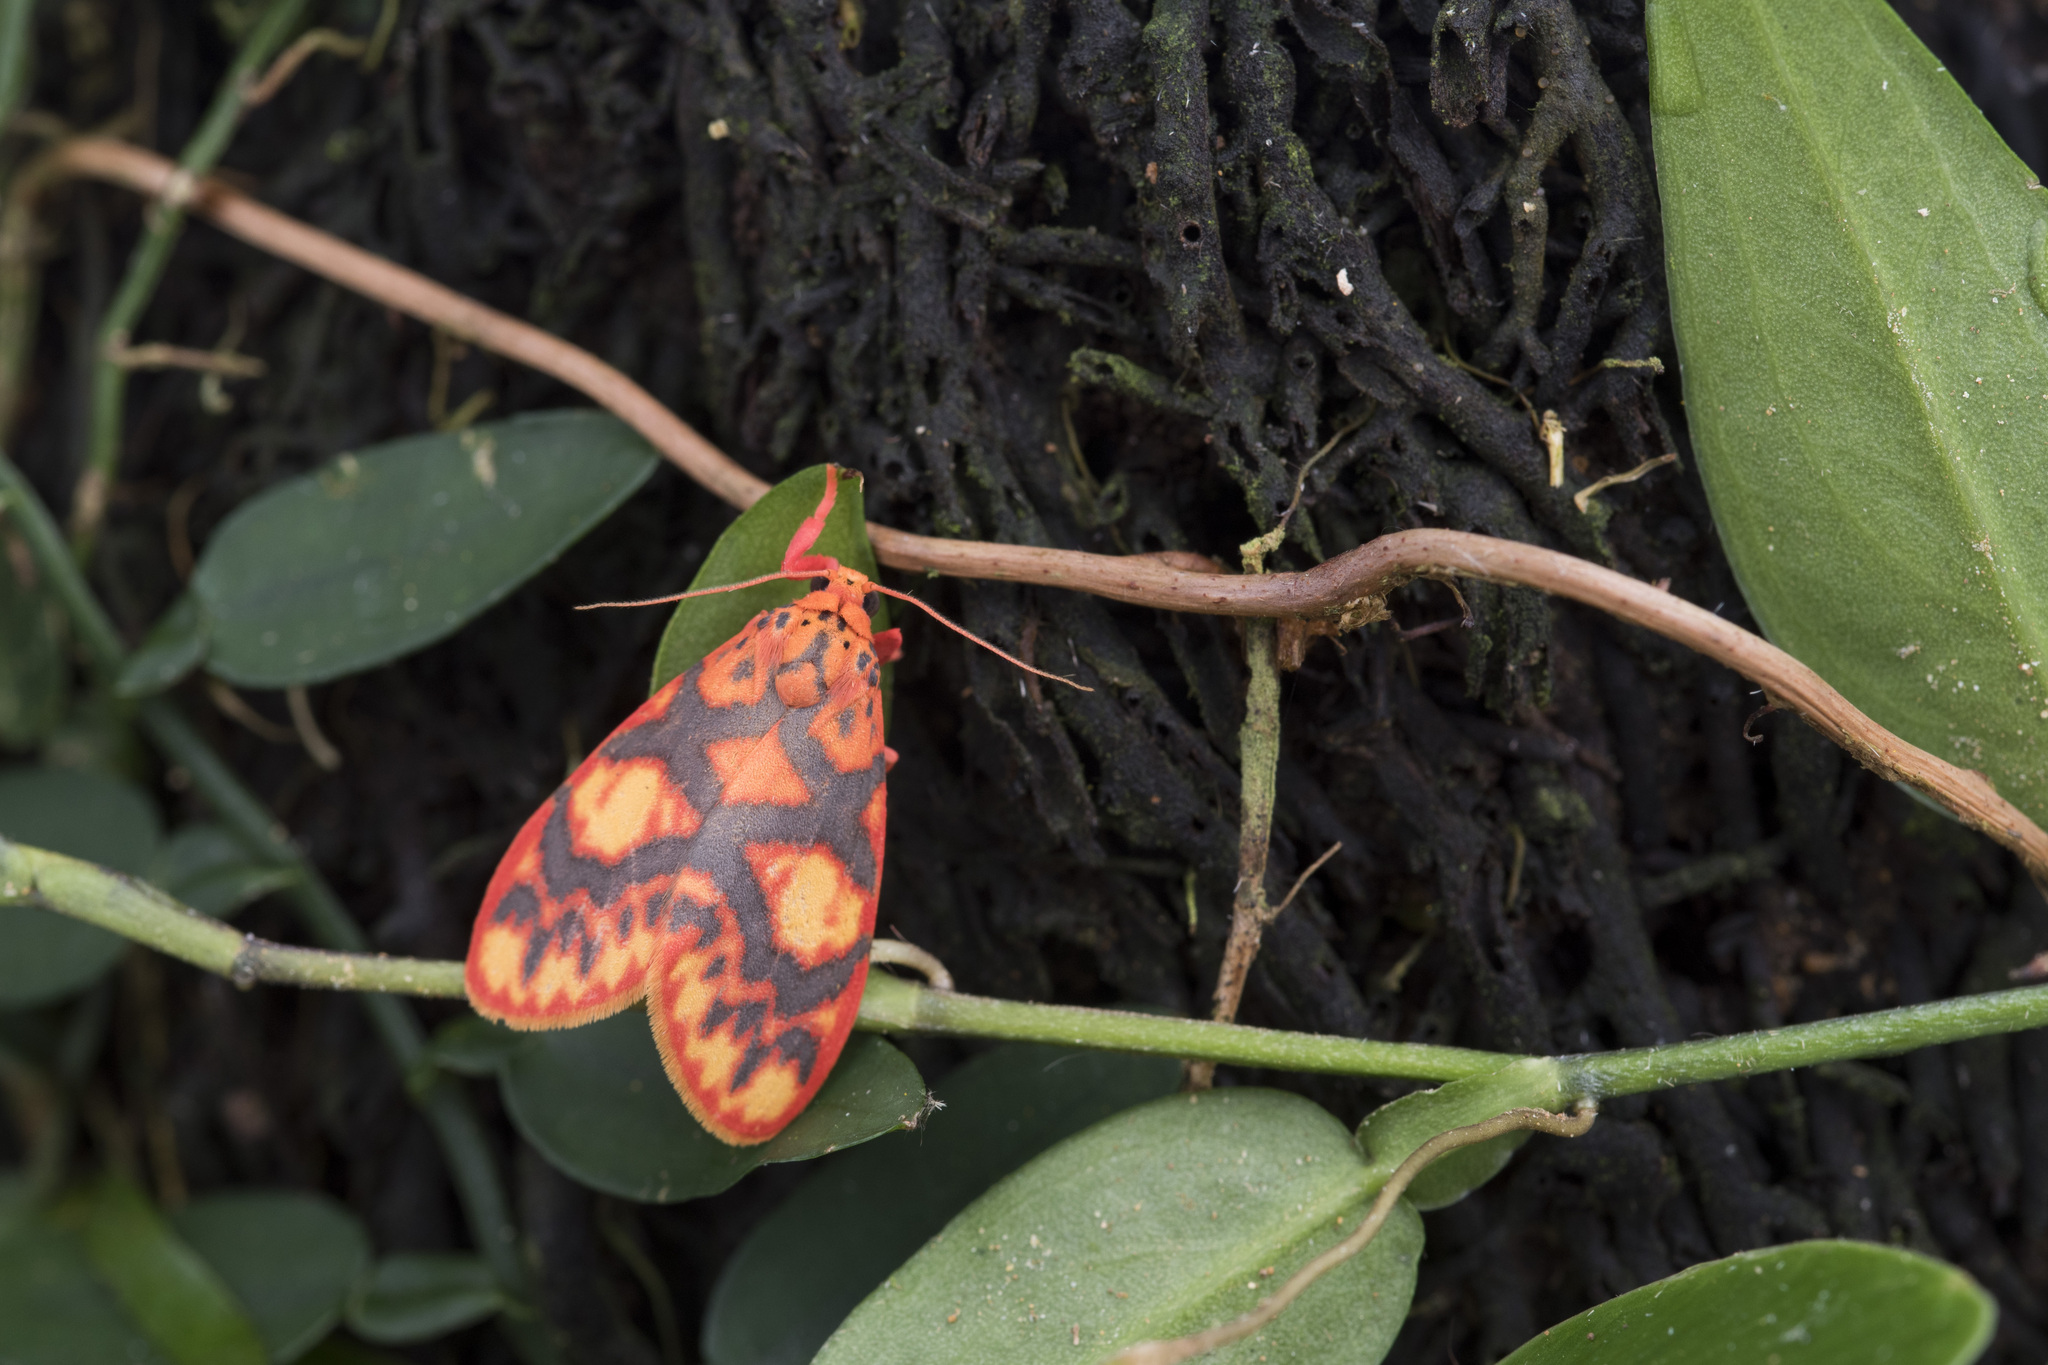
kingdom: Animalia
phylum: Arthropoda
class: Insecta
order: Lepidoptera
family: Erebidae
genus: Floridasura
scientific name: Floridasura tricolor
